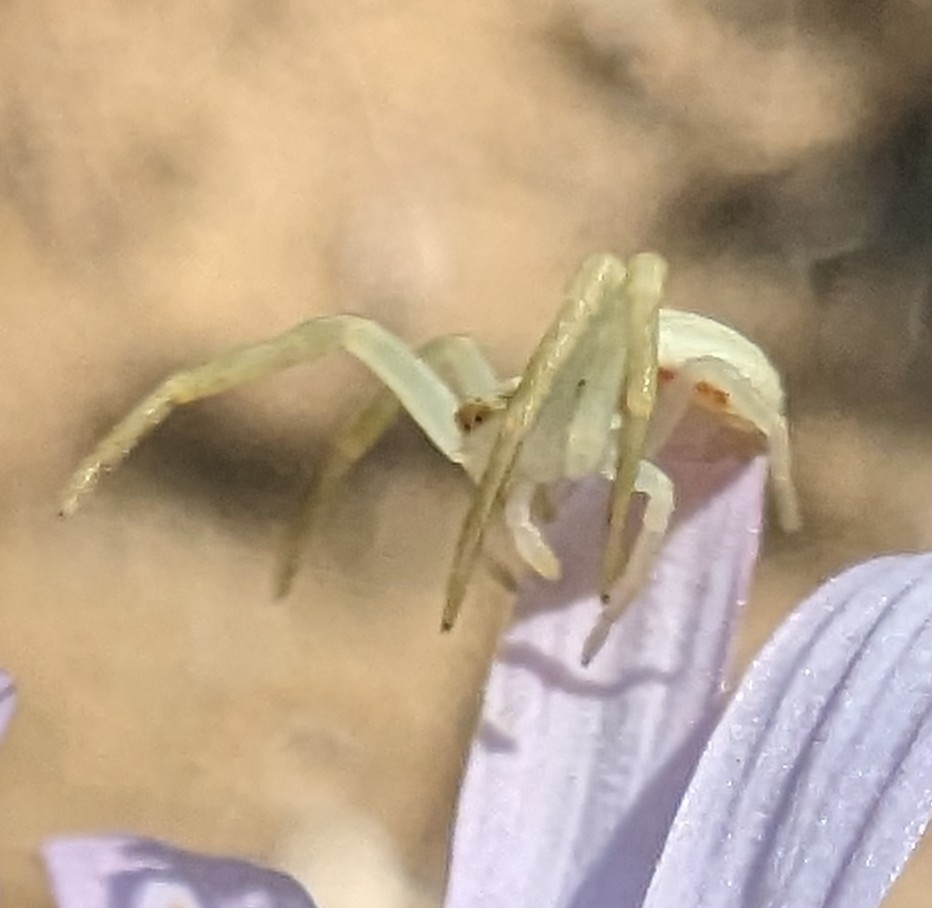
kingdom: Animalia
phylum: Arthropoda
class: Arachnida
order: Araneae
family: Thomisidae
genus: Misumena
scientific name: Misumena vatia
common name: Goldenrod crab spider
